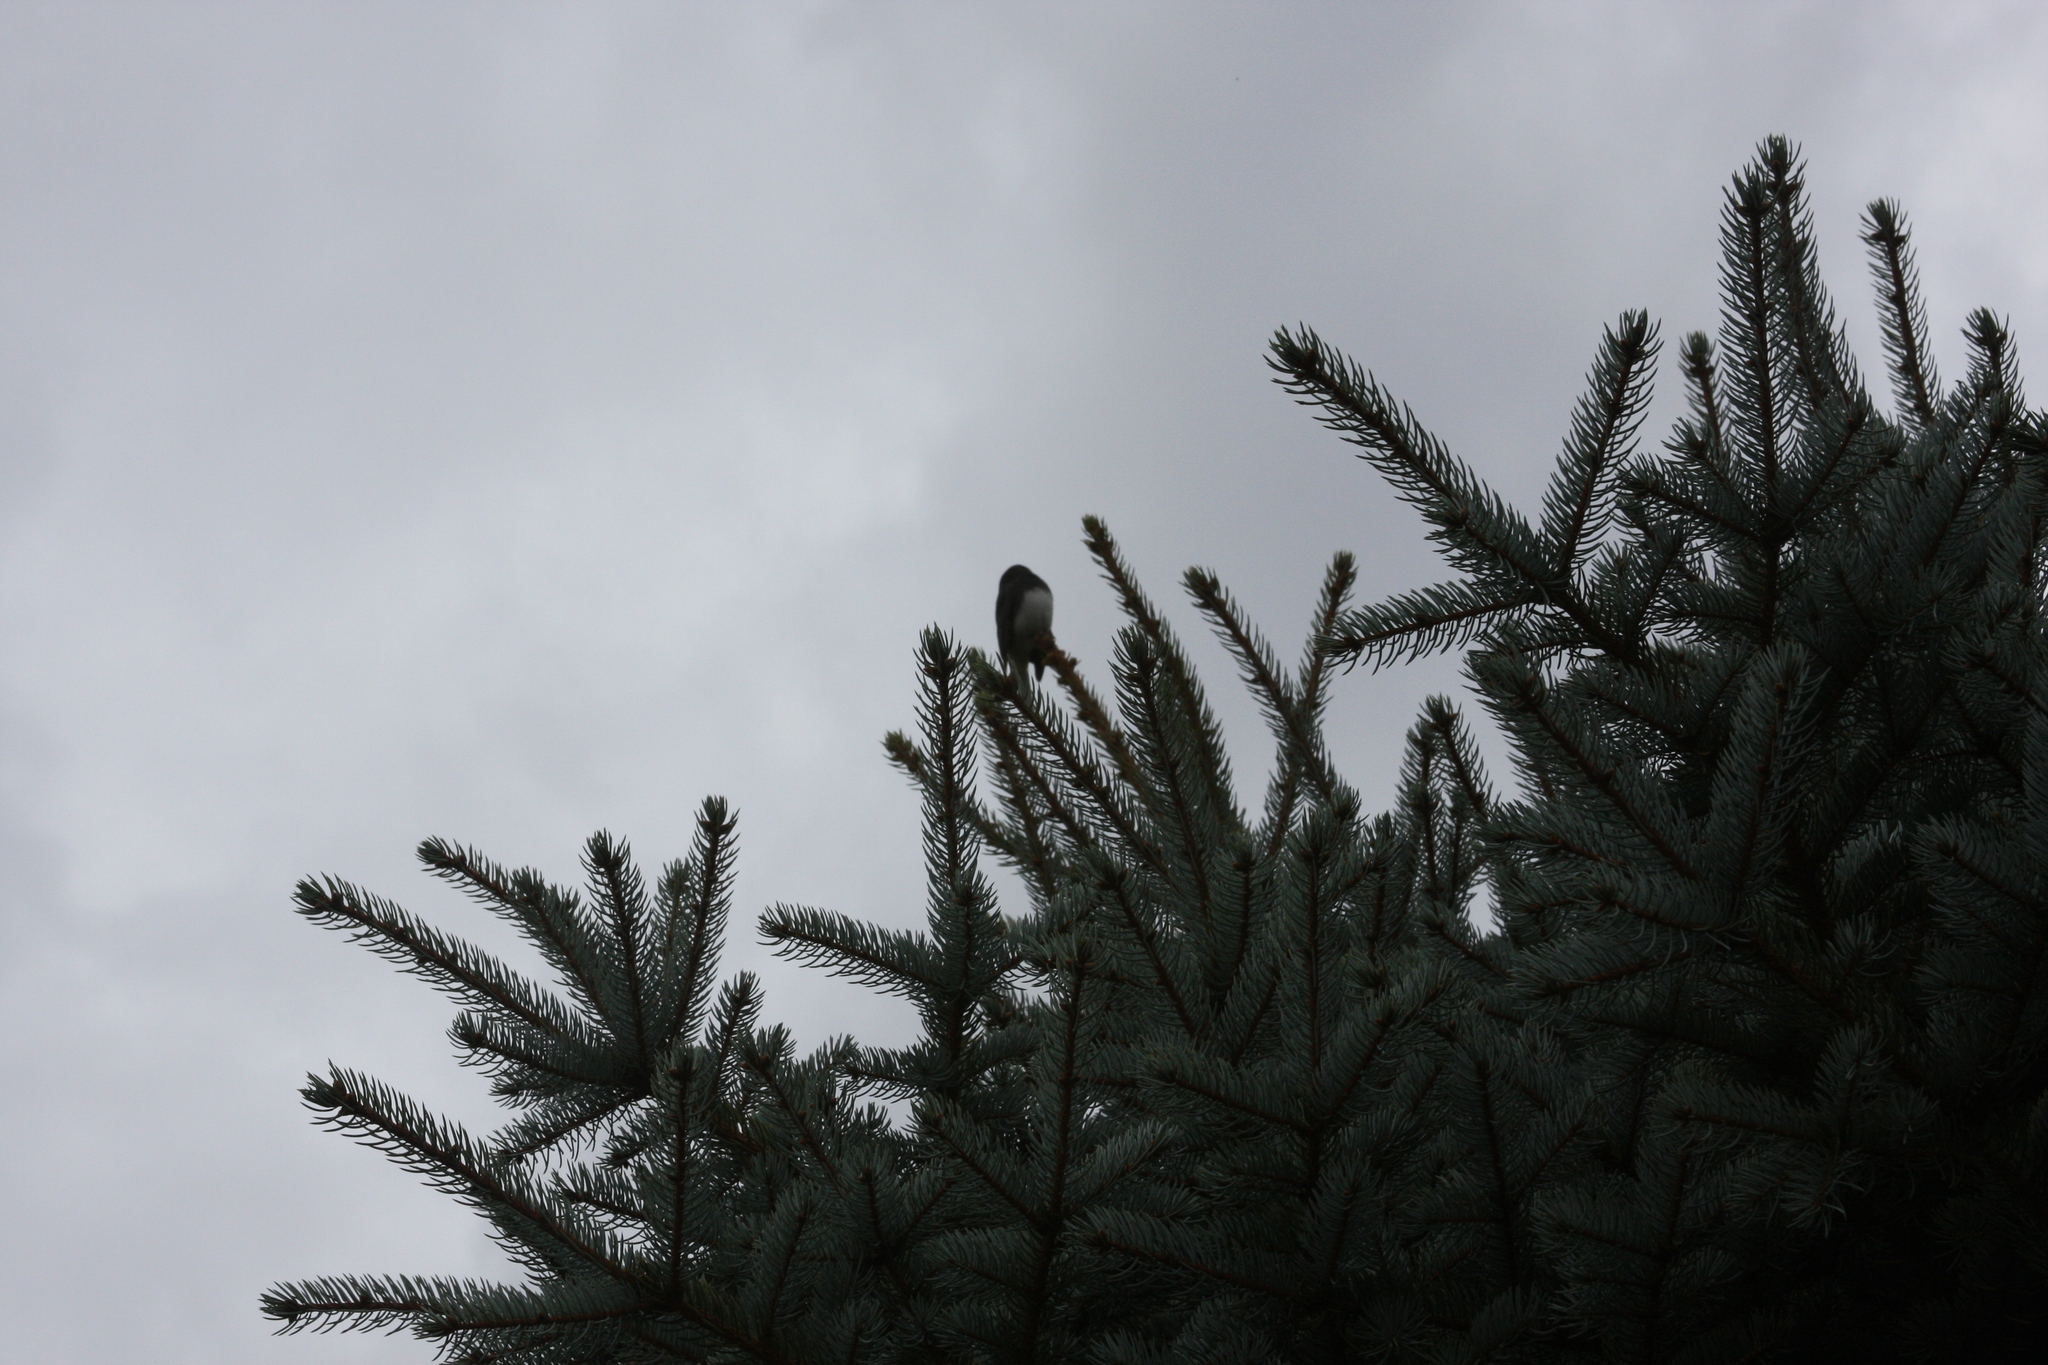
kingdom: Animalia
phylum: Chordata
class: Aves
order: Passeriformes
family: Passerellidae
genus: Junco
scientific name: Junco hyemalis
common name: Dark-eyed junco
